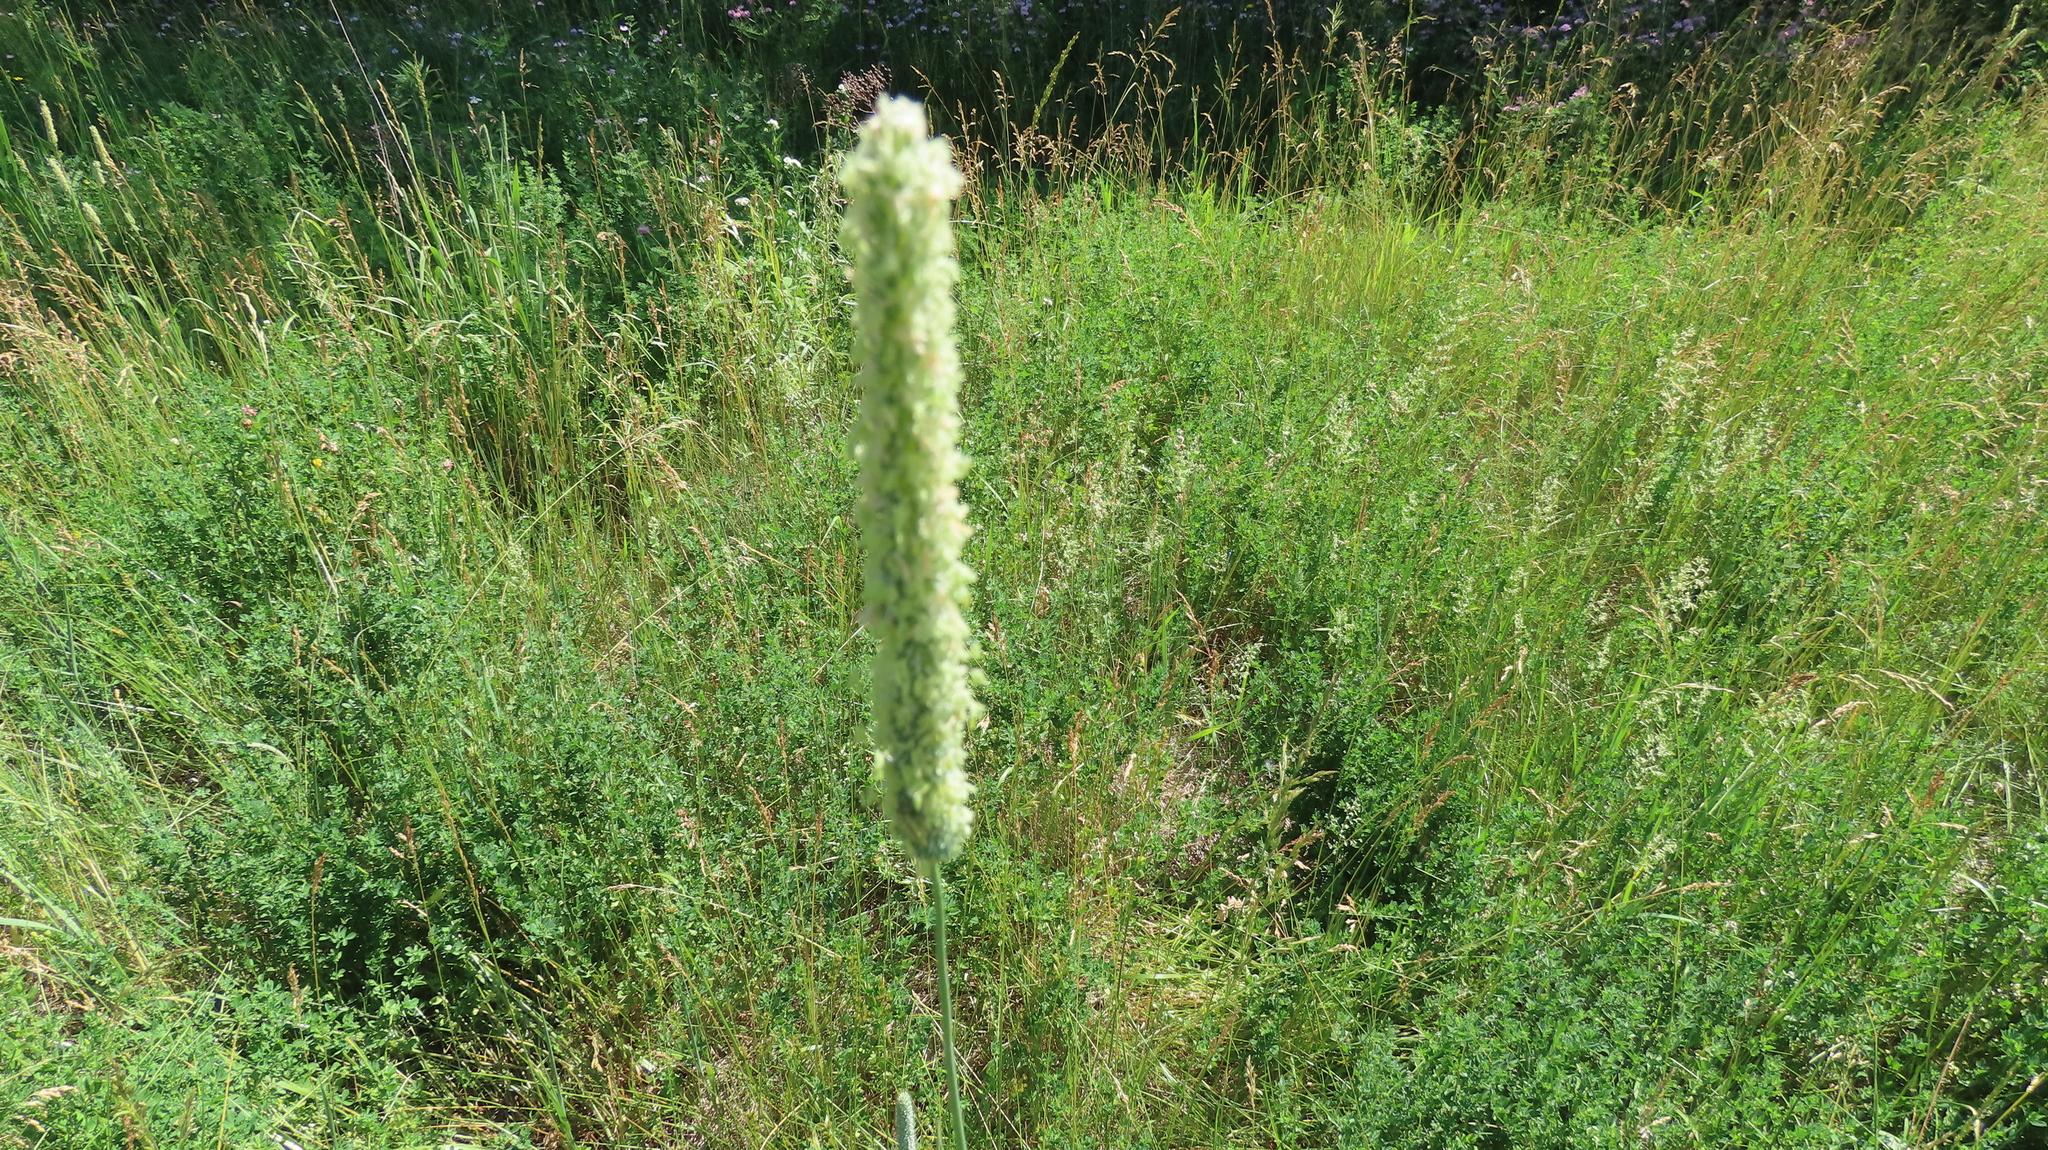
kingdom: Plantae
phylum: Tracheophyta
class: Liliopsida
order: Poales
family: Poaceae
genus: Phleum
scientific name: Phleum pratense
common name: Timothy grass
